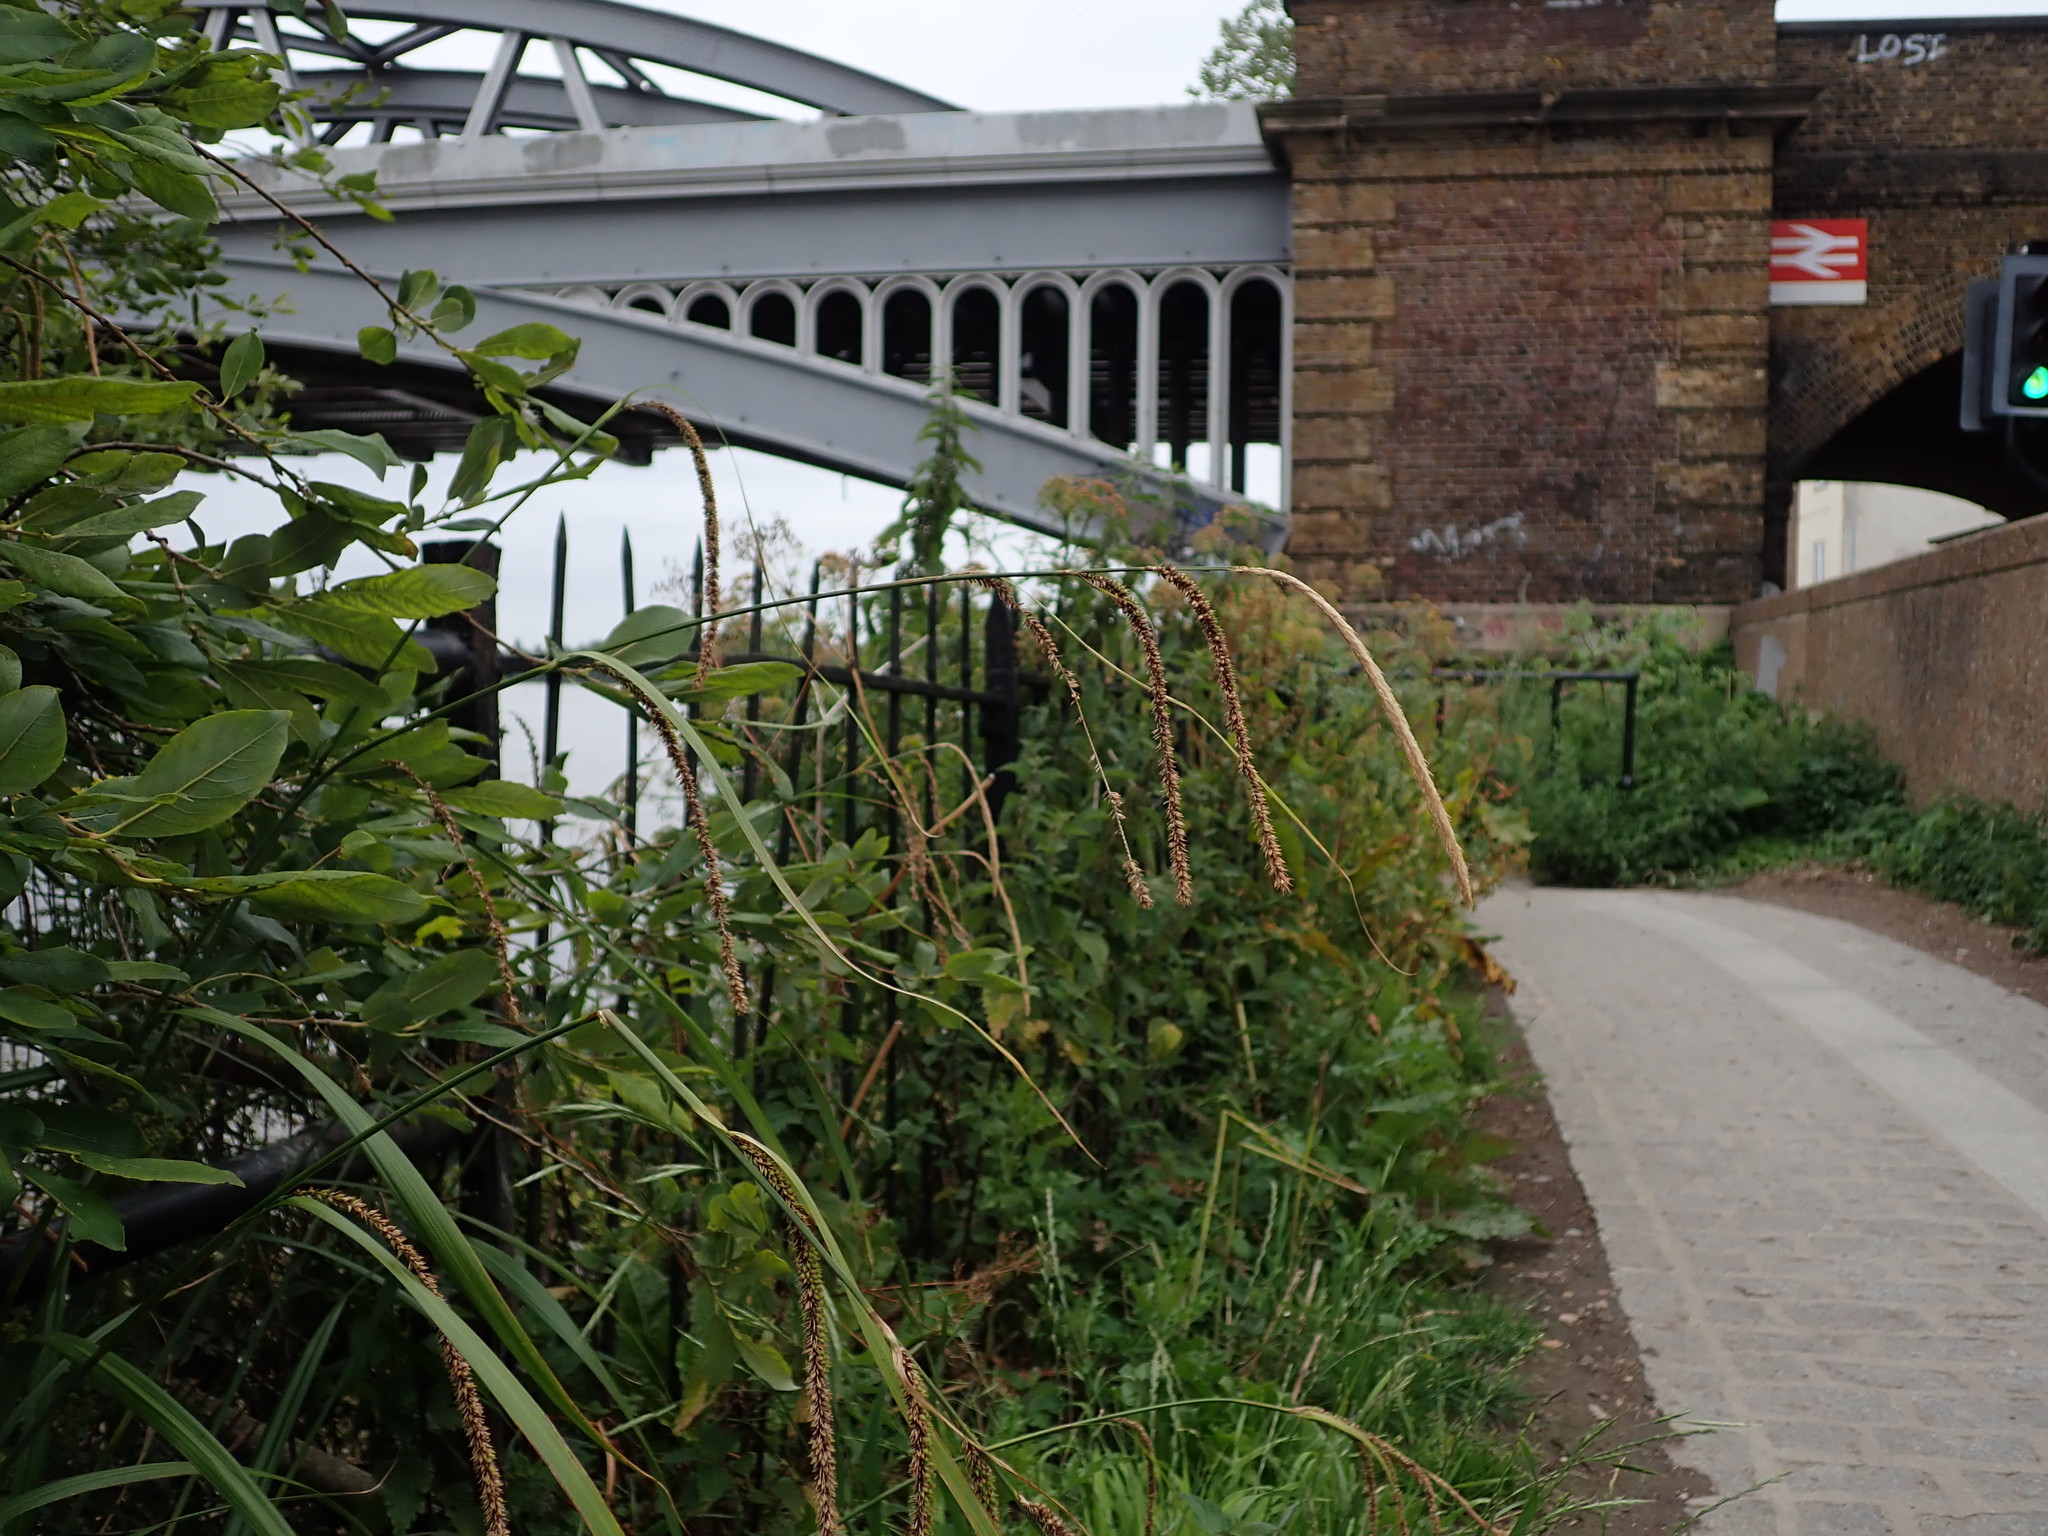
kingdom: Plantae
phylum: Tracheophyta
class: Liliopsida
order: Poales
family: Cyperaceae
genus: Carex
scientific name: Carex pendula
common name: Pendulous sedge
